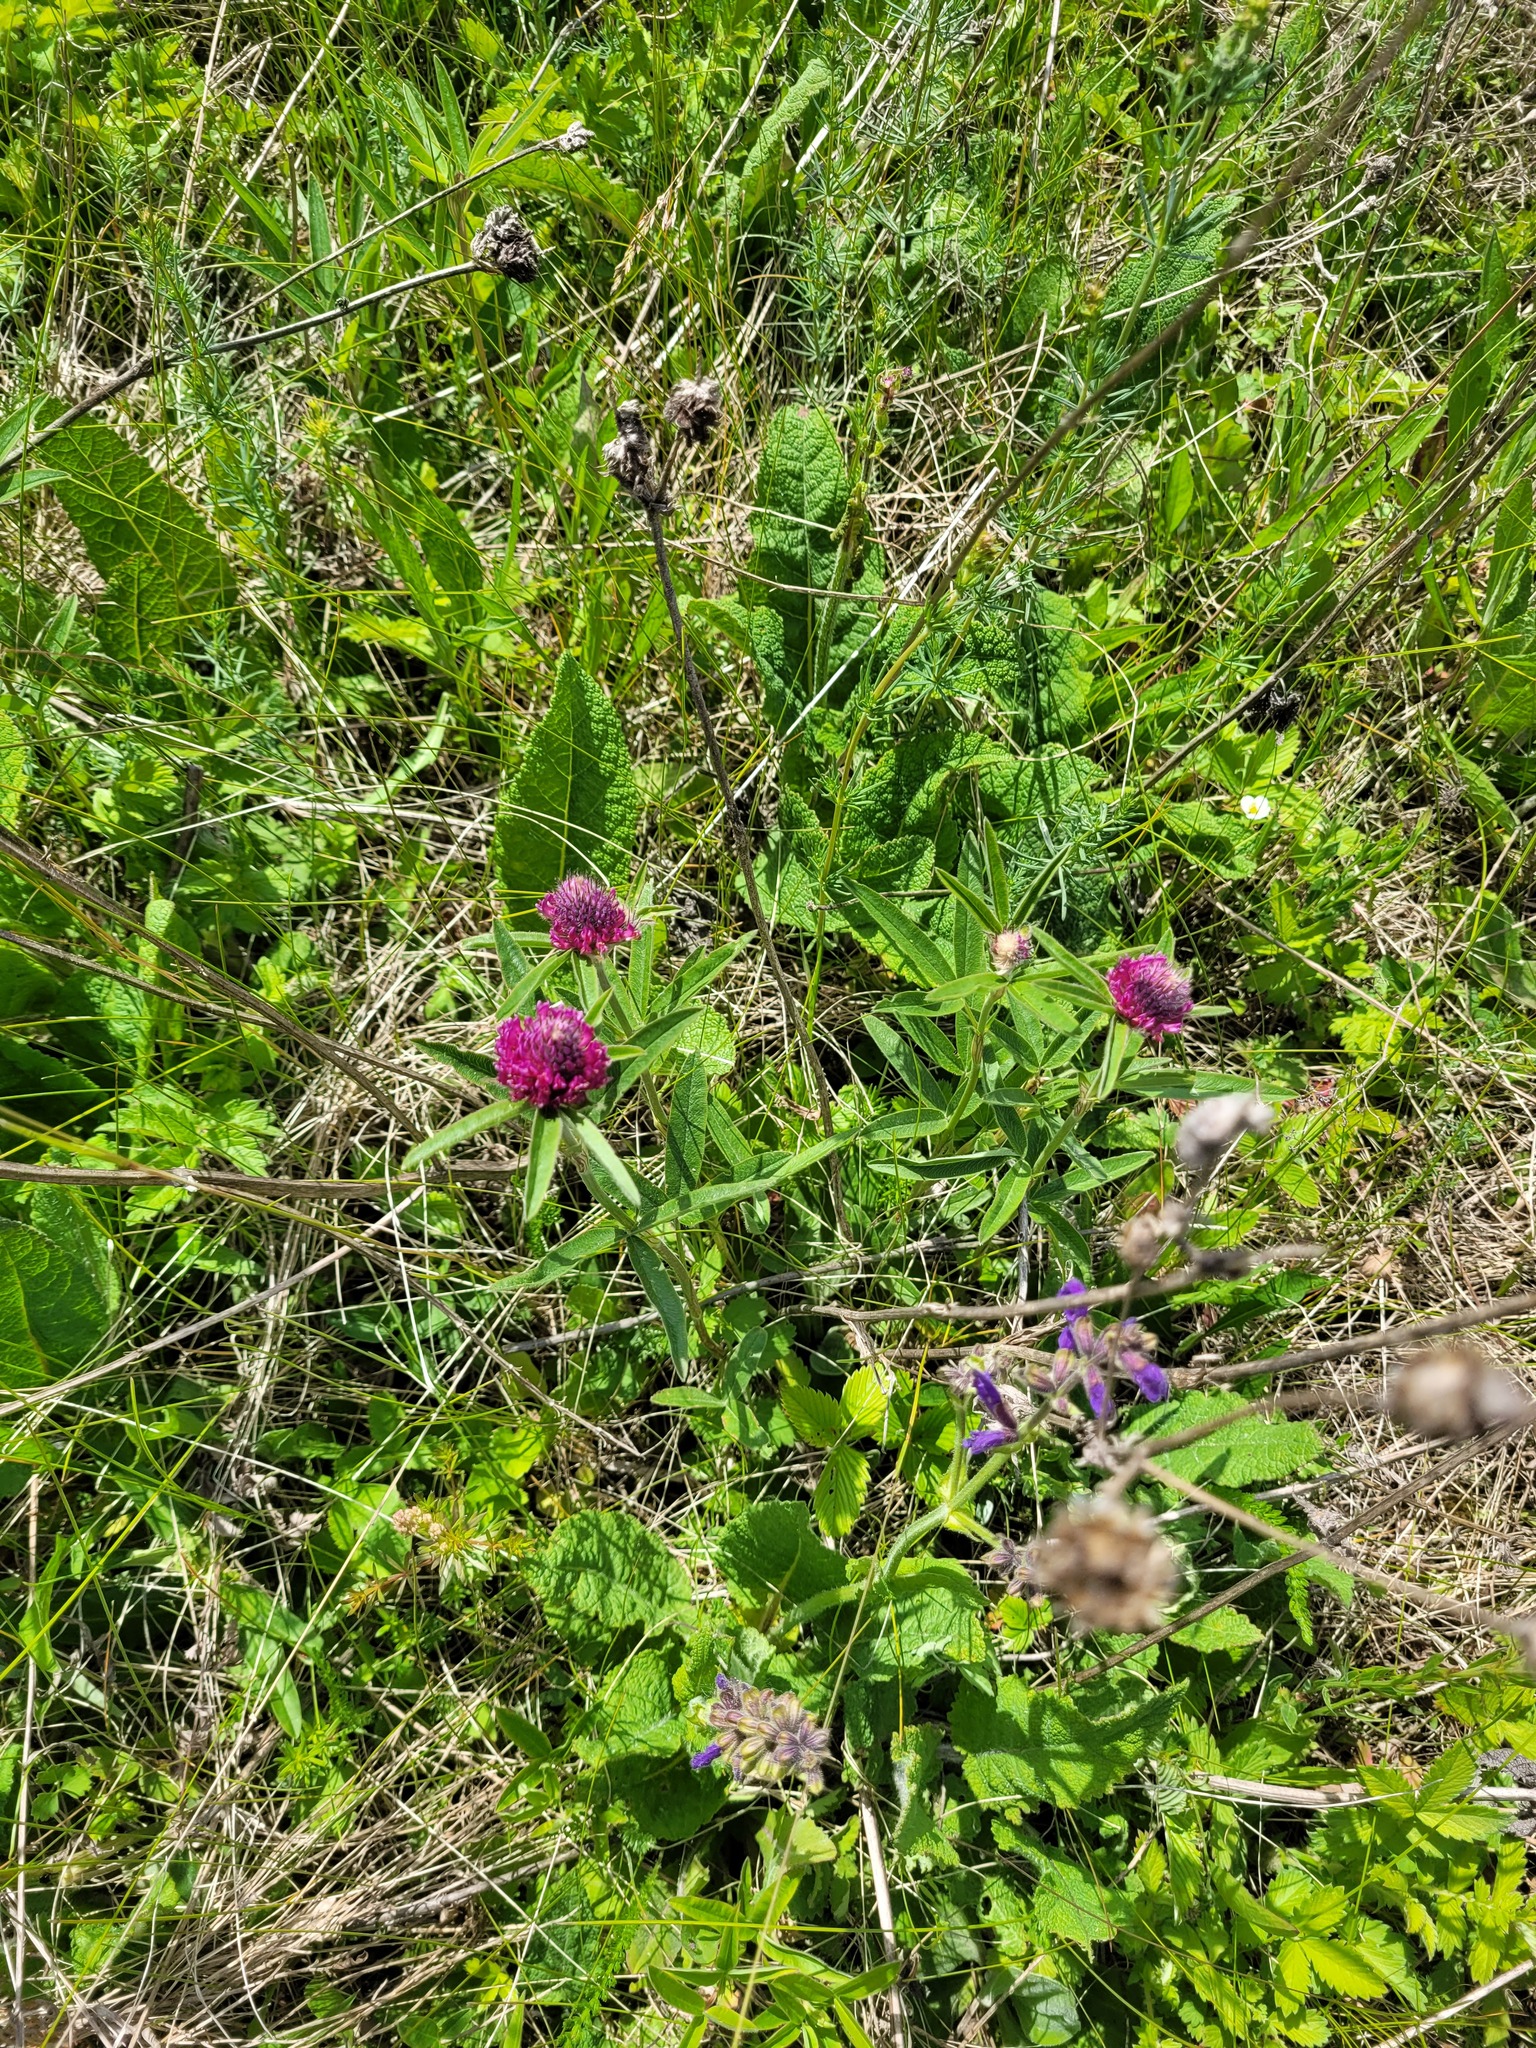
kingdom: Plantae
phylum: Tracheophyta
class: Magnoliopsida
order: Fabales
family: Fabaceae
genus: Trifolium
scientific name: Trifolium alpestre
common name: Owl-head clover
